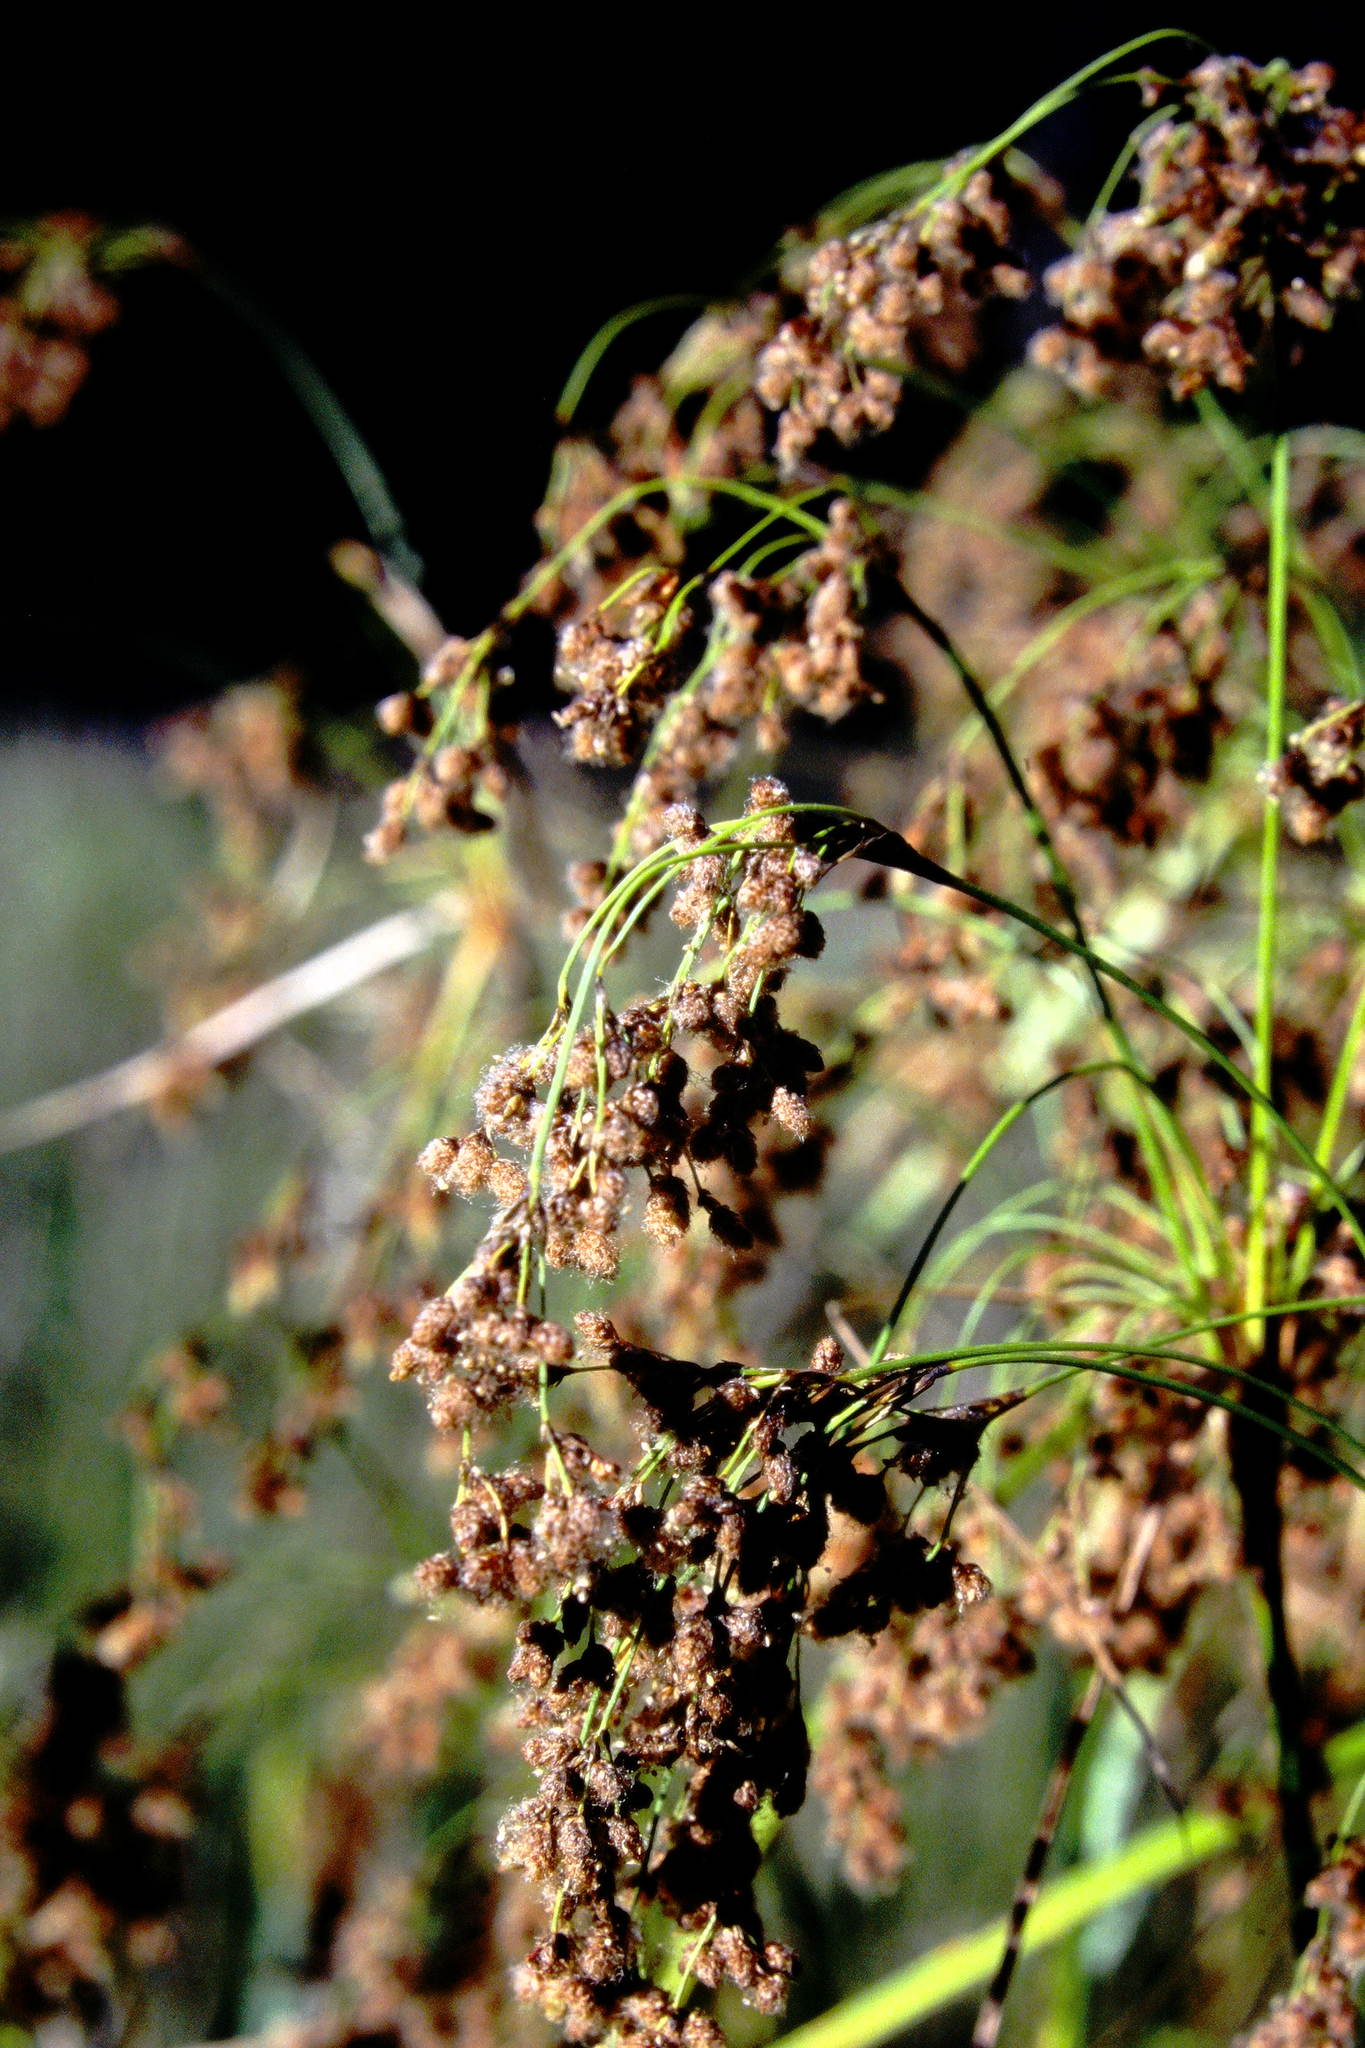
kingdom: Plantae
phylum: Tracheophyta
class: Liliopsida
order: Poales
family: Cyperaceae
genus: Scirpus
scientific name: Scirpus cyperinus
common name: Black-sheathed bulrush
